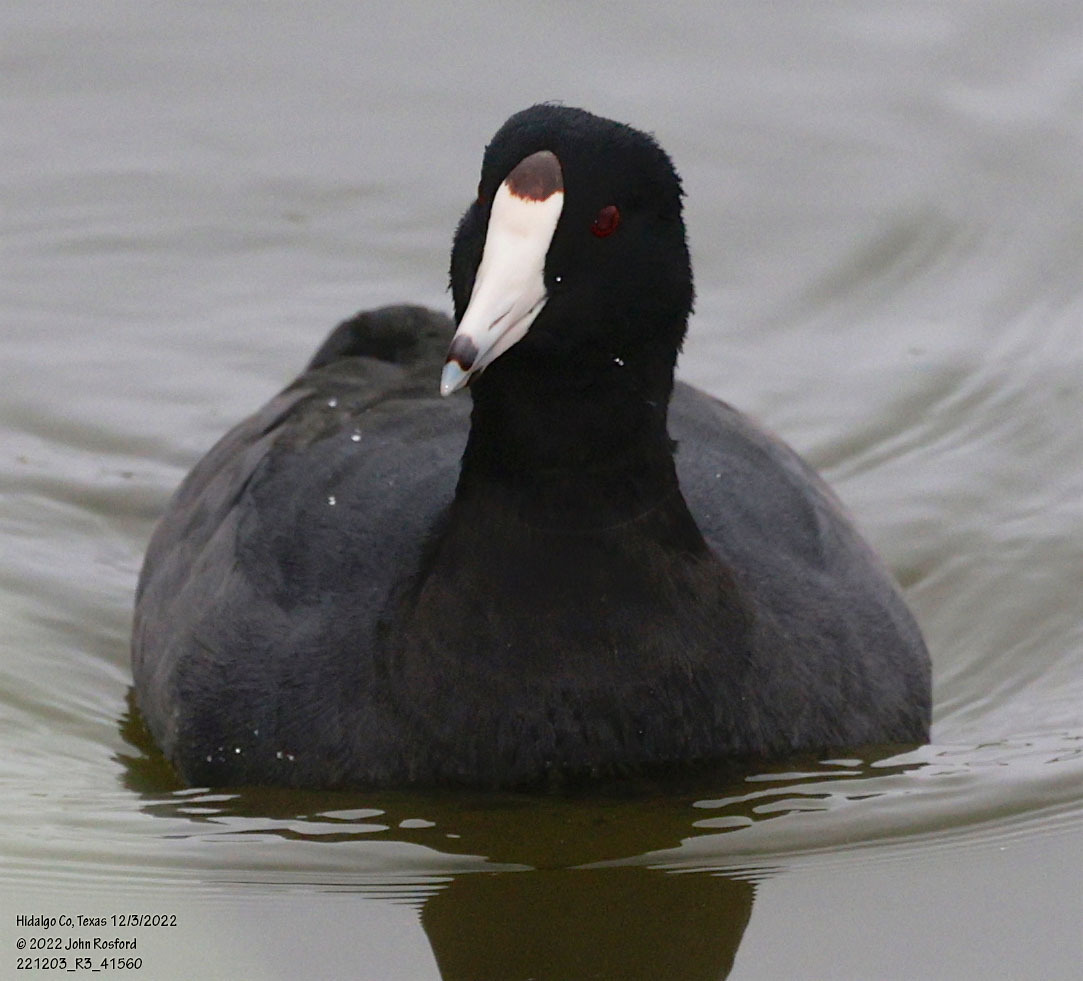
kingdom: Animalia
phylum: Chordata
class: Aves
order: Gruiformes
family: Rallidae
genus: Fulica
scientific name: Fulica americana
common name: American coot
